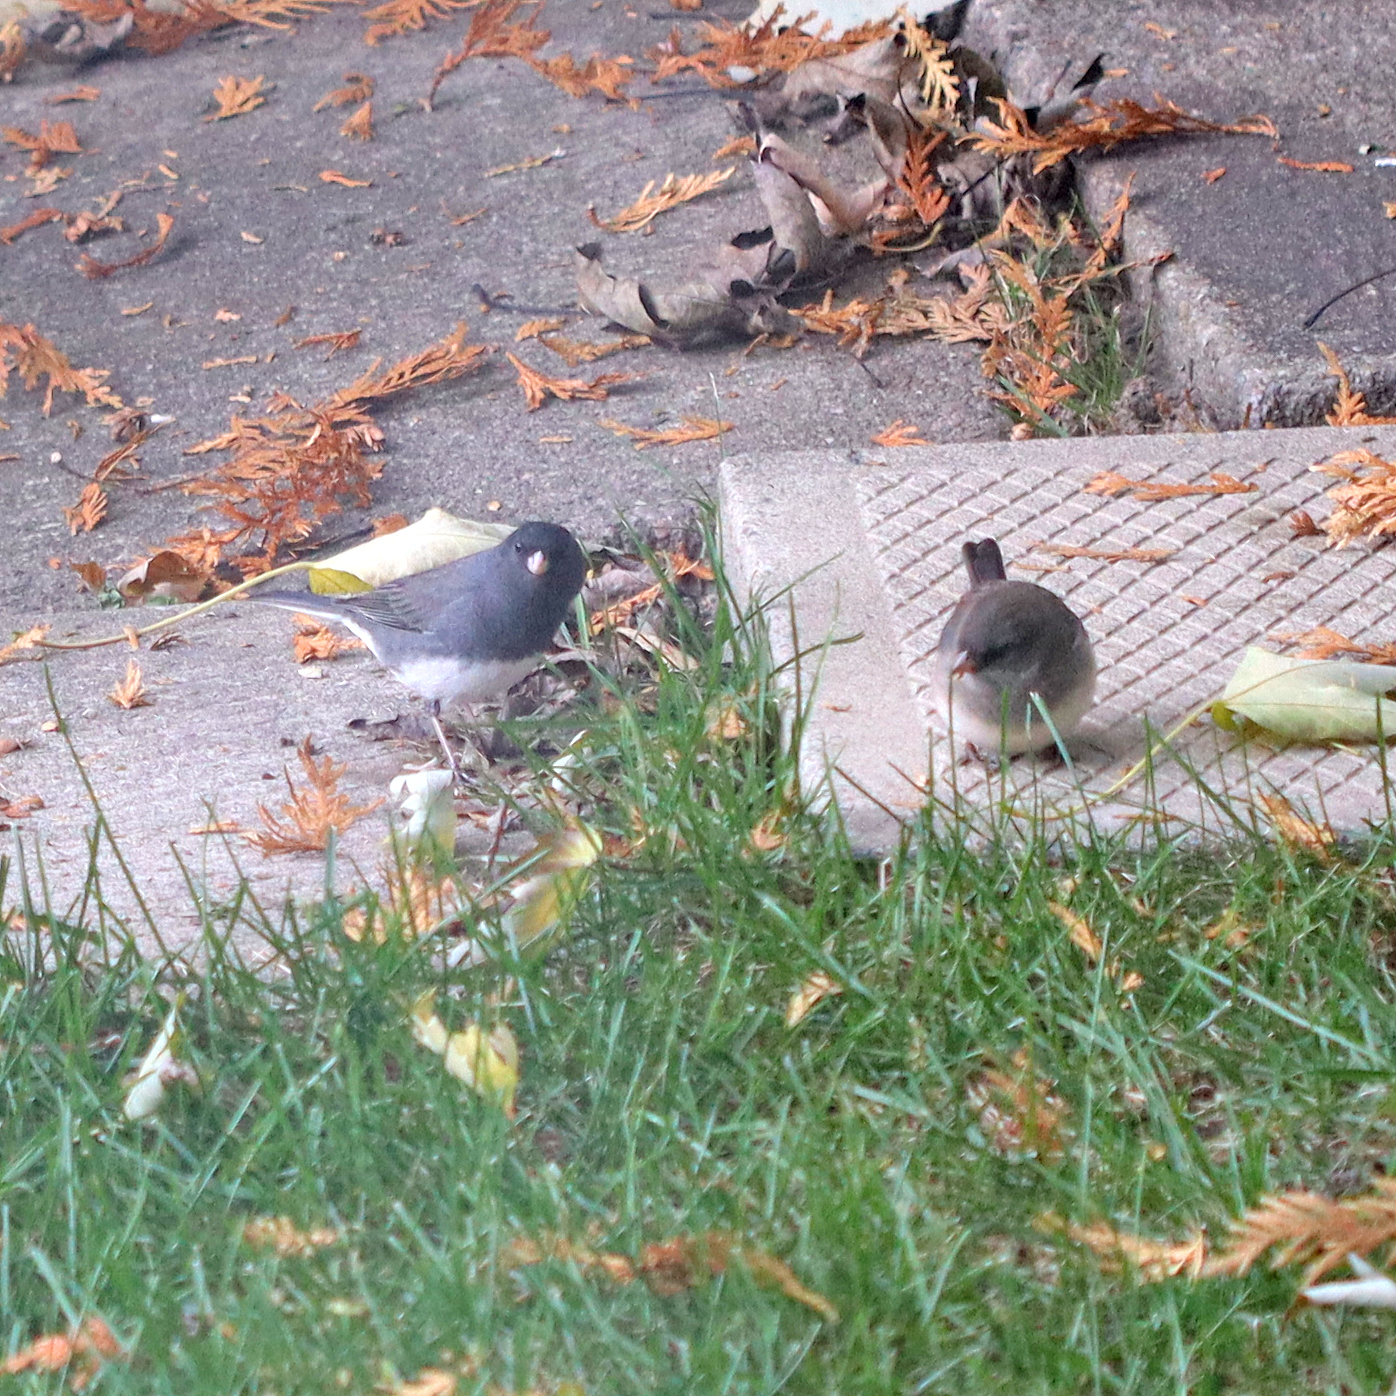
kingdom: Animalia
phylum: Chordata
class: Aves
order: Passeriformes
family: Passerellidae
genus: Junco
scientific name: Junco hyemalis
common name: Dark-eyed junco
